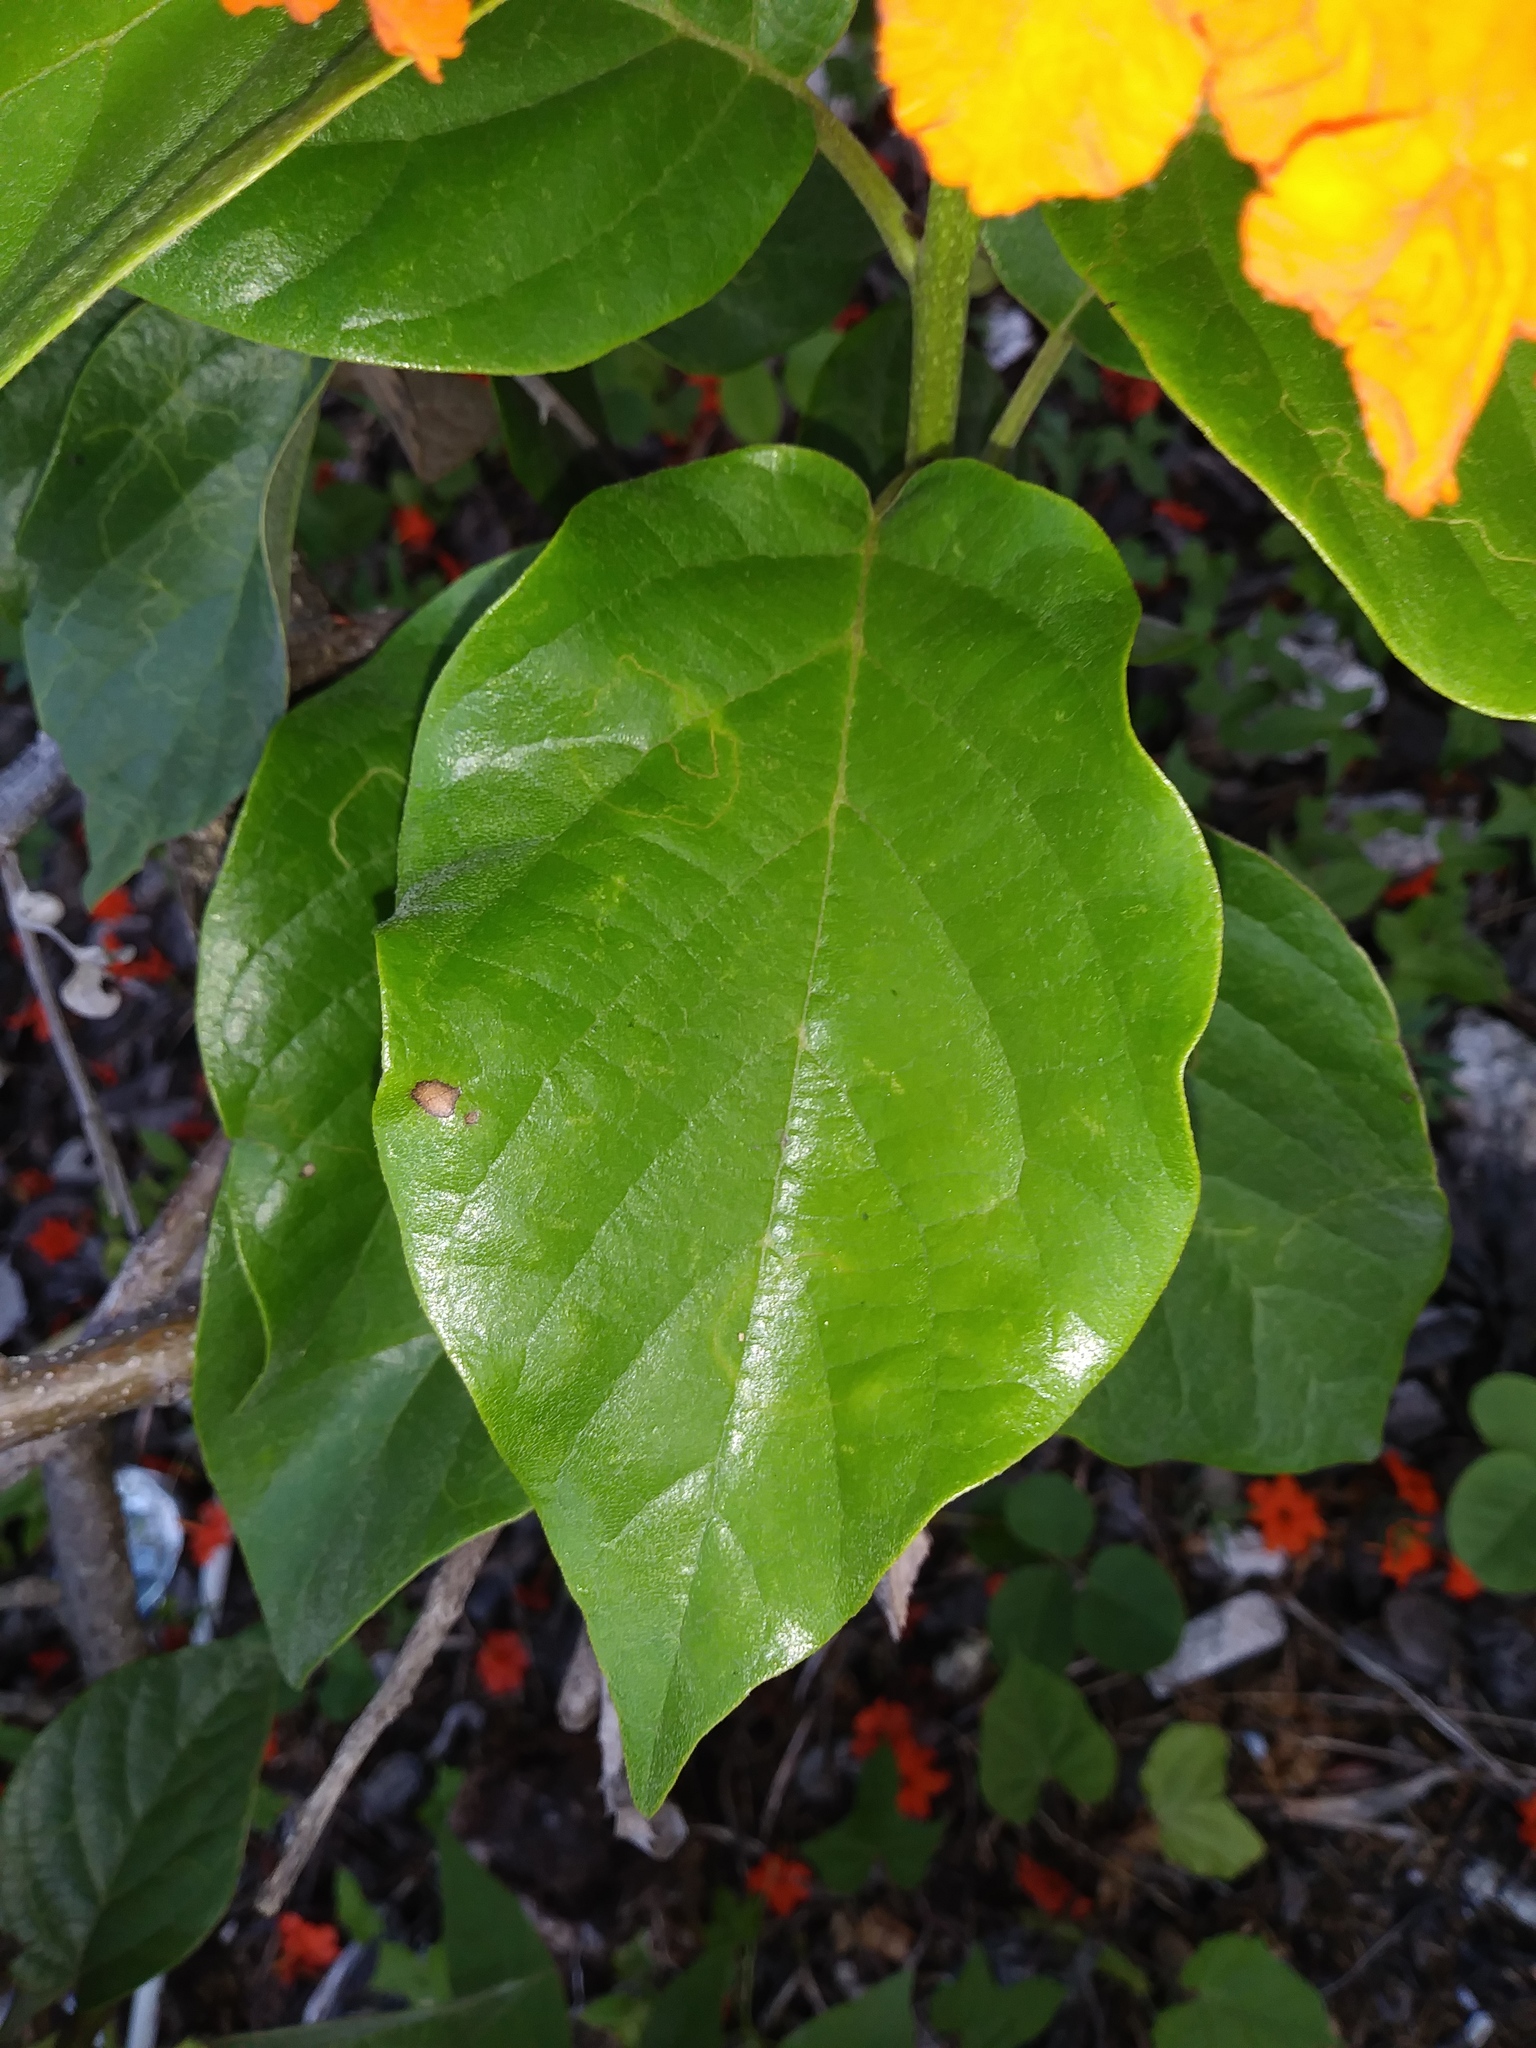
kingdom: Plantae
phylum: Tracheophyta
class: Magnoliopsida
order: Boraginales
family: Cordiaceae
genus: Cordia
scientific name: Cordia sebestena
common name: Largeleaf geigertree
